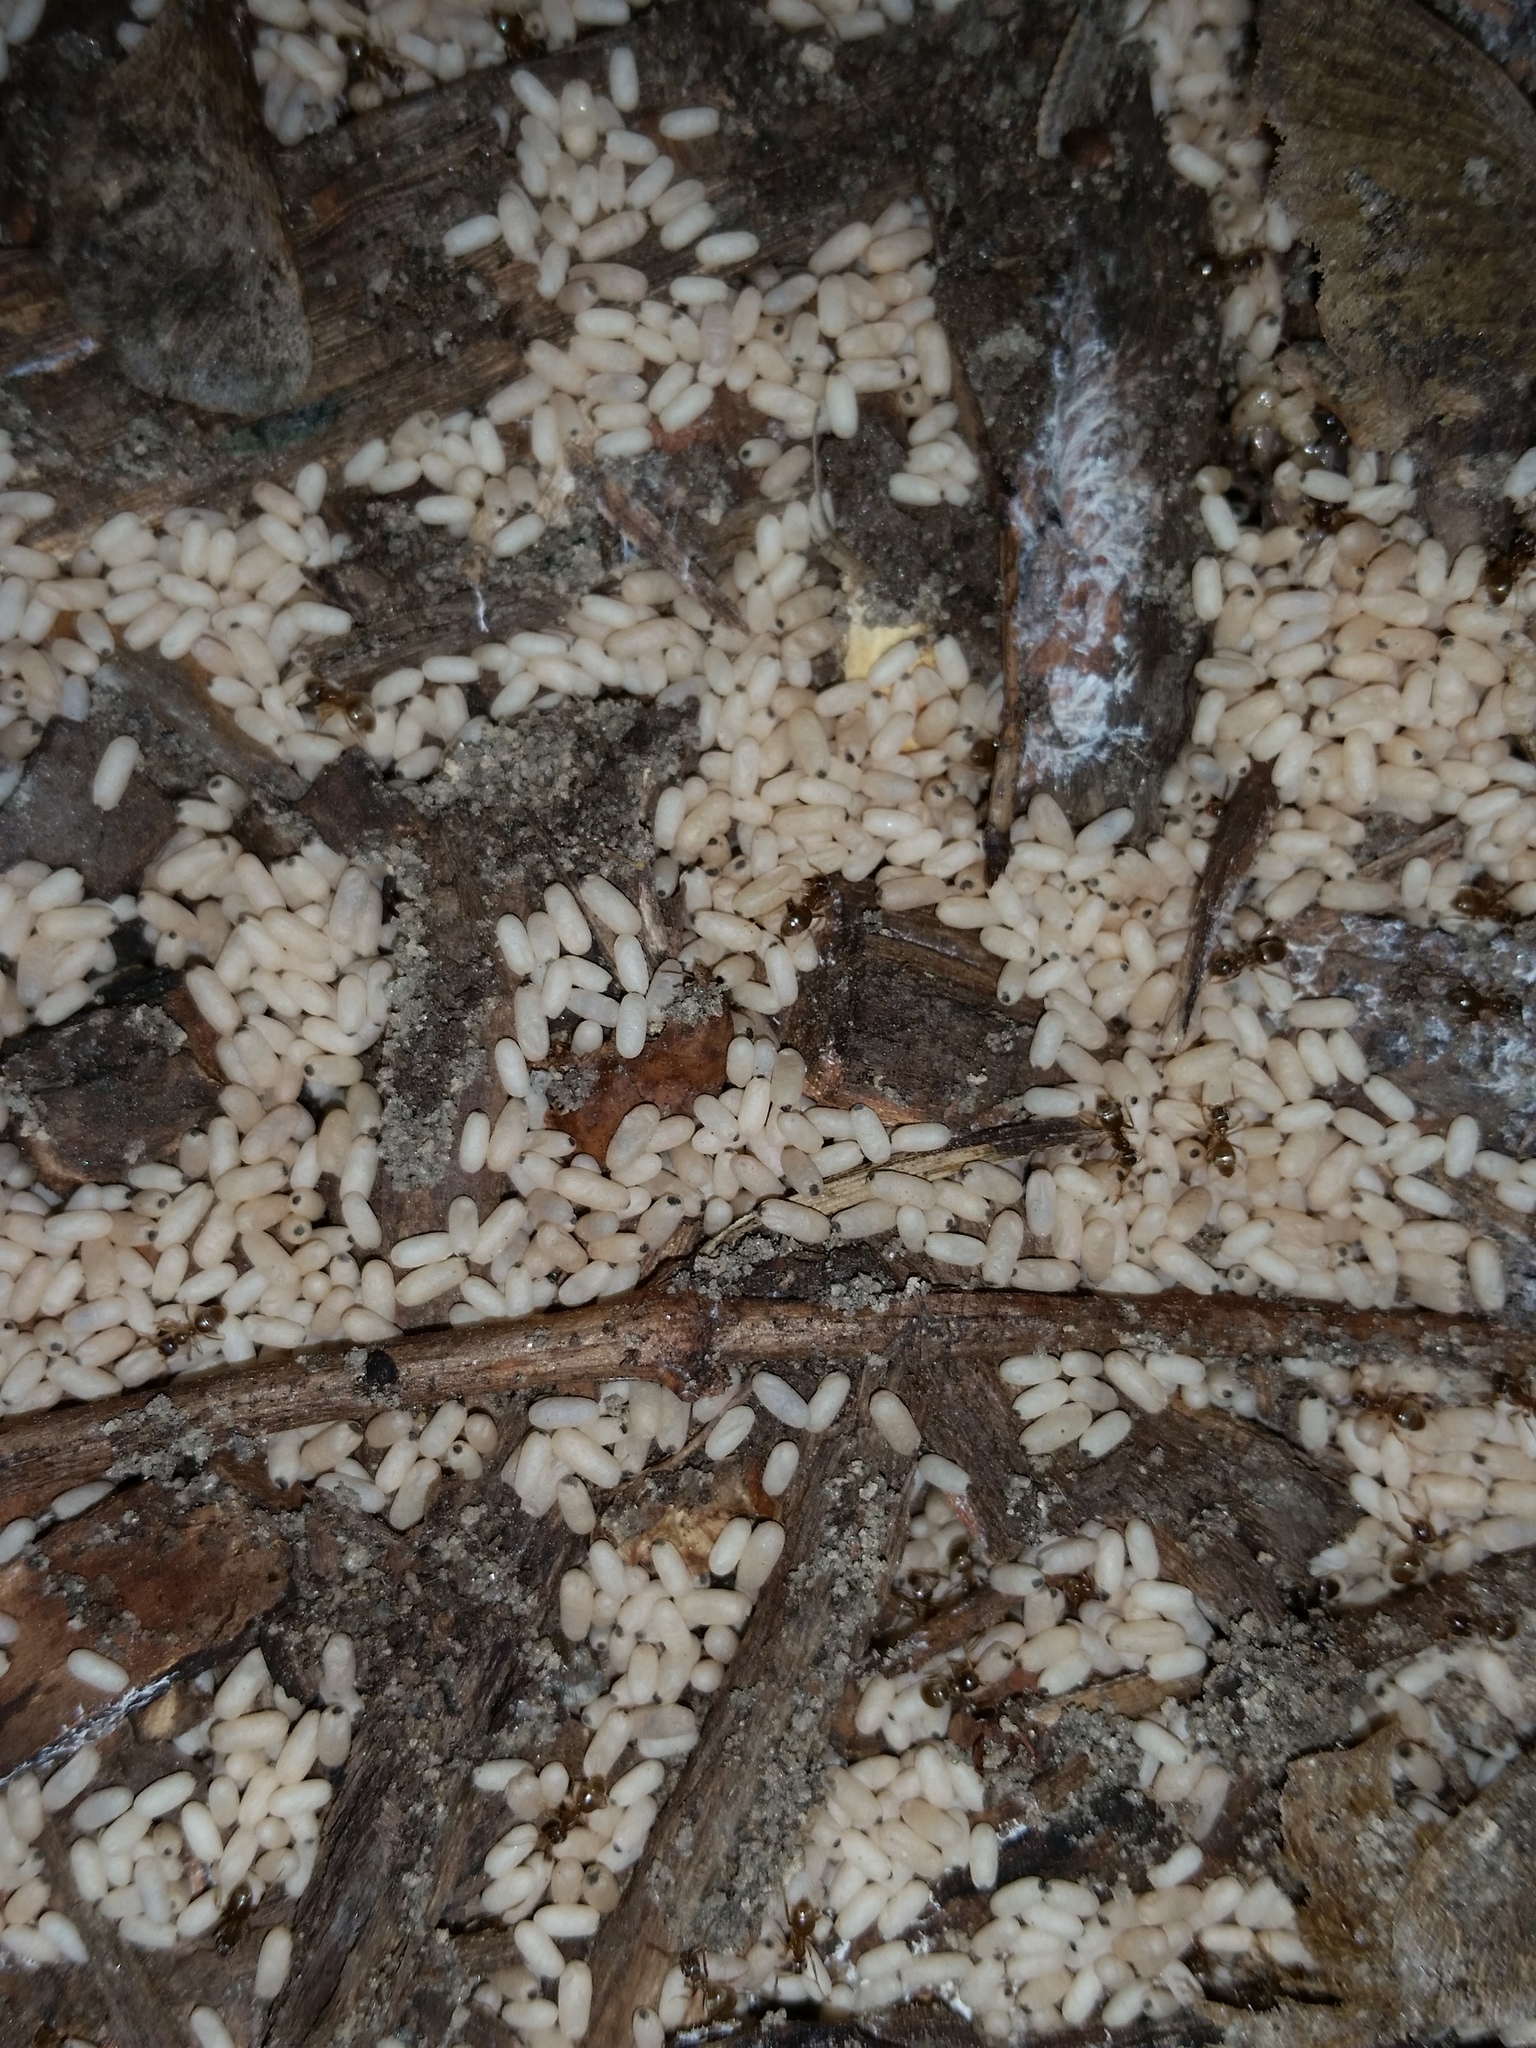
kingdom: Animalia
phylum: Arthropoda
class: Insecta
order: Hymenoptera
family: Formicidae
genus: Lasius
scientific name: Lasius
